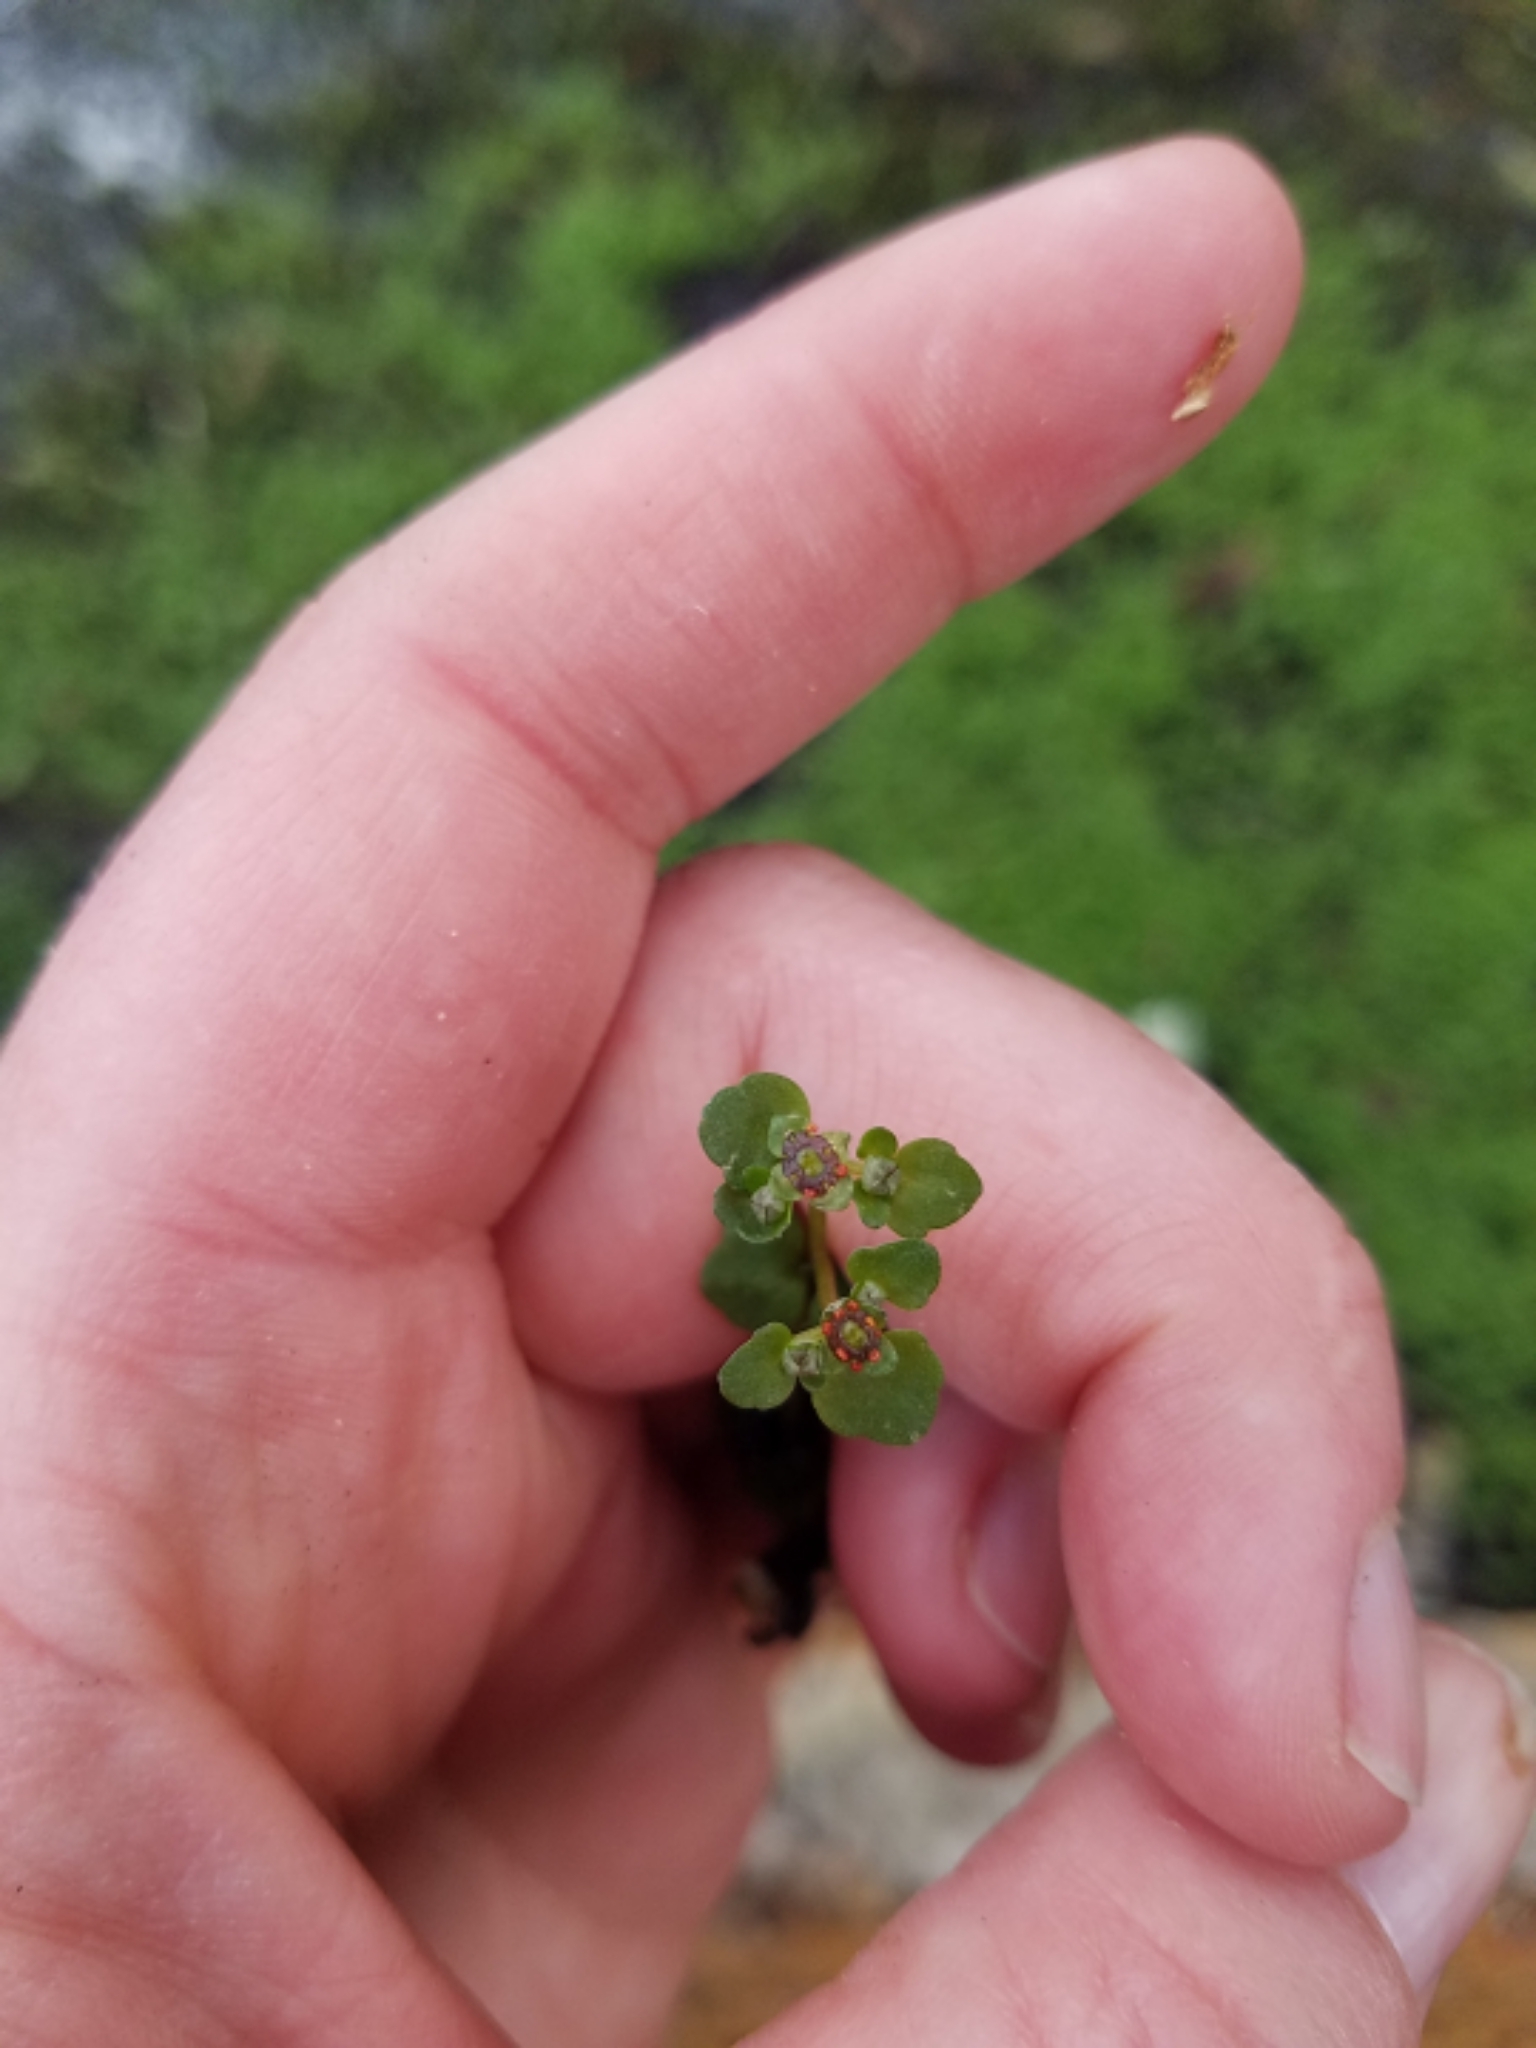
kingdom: Plantae
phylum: Tracheophyta
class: Magnoliopsida
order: Saxifragales
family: Saxifragaceae
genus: Chrysosplenium
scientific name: Chrysosplenium americanum
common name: American golden-saxifrage
